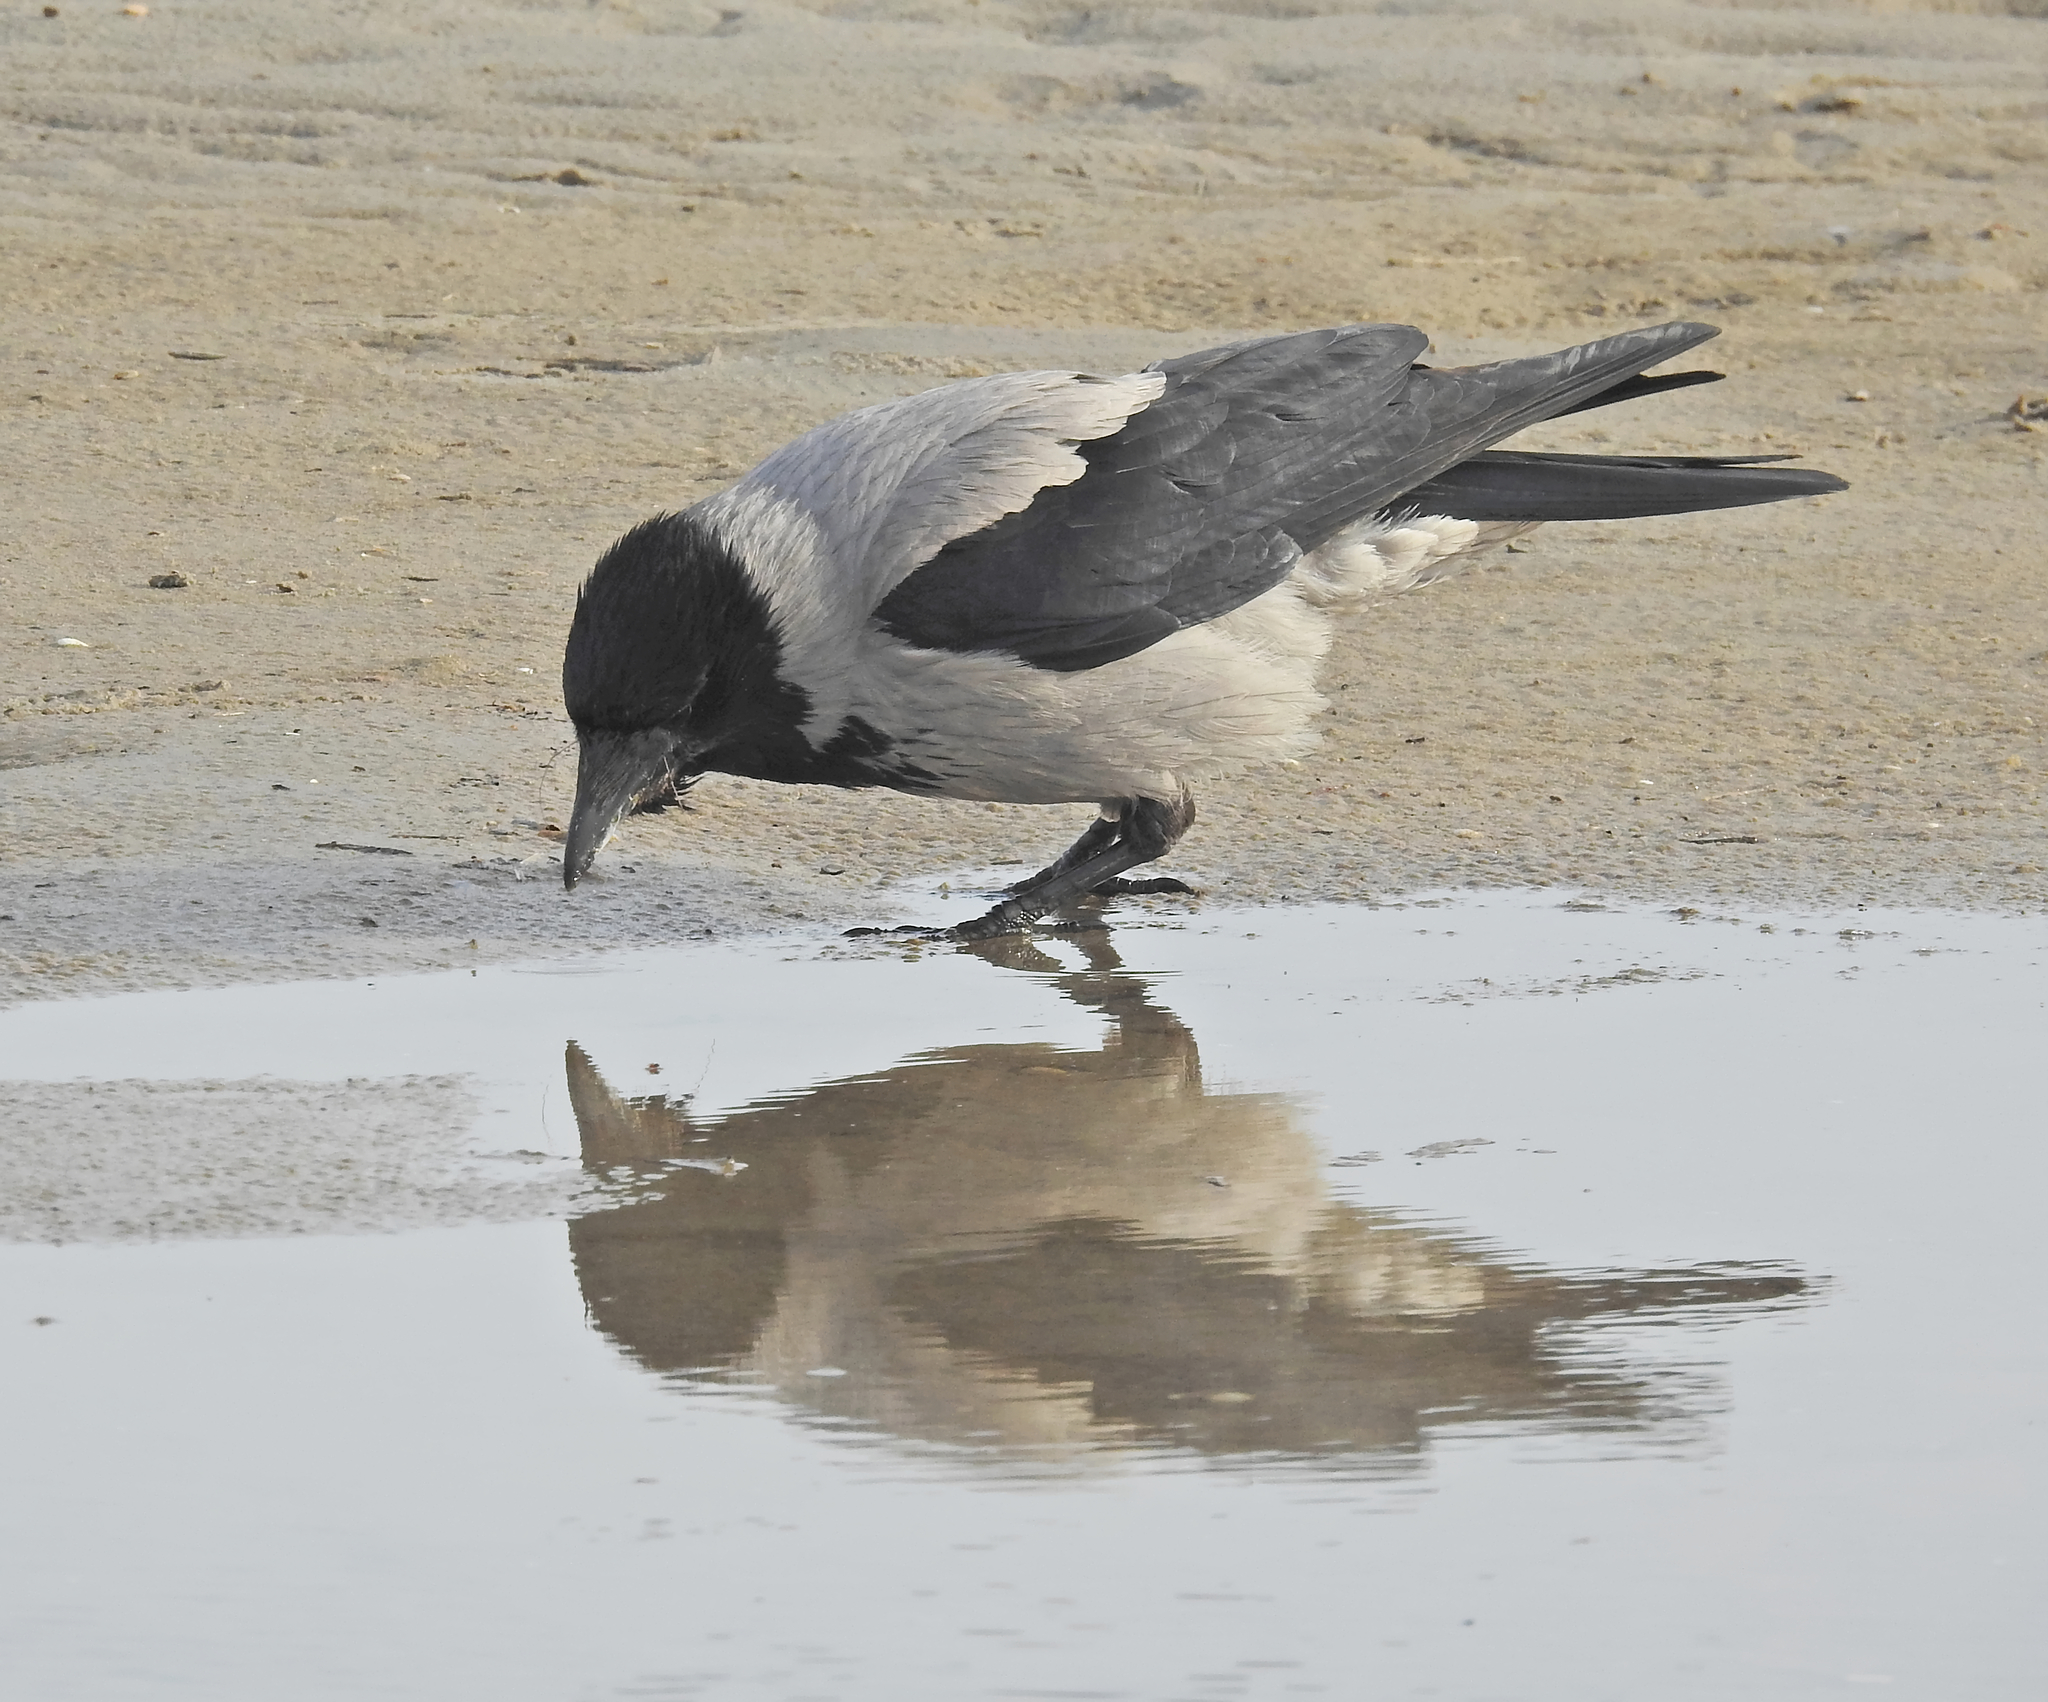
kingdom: Animalia
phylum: Chordata
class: Aves
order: Passeriformes
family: Corvidae
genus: Corvus
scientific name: Corvus cornix
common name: Hooded crow
